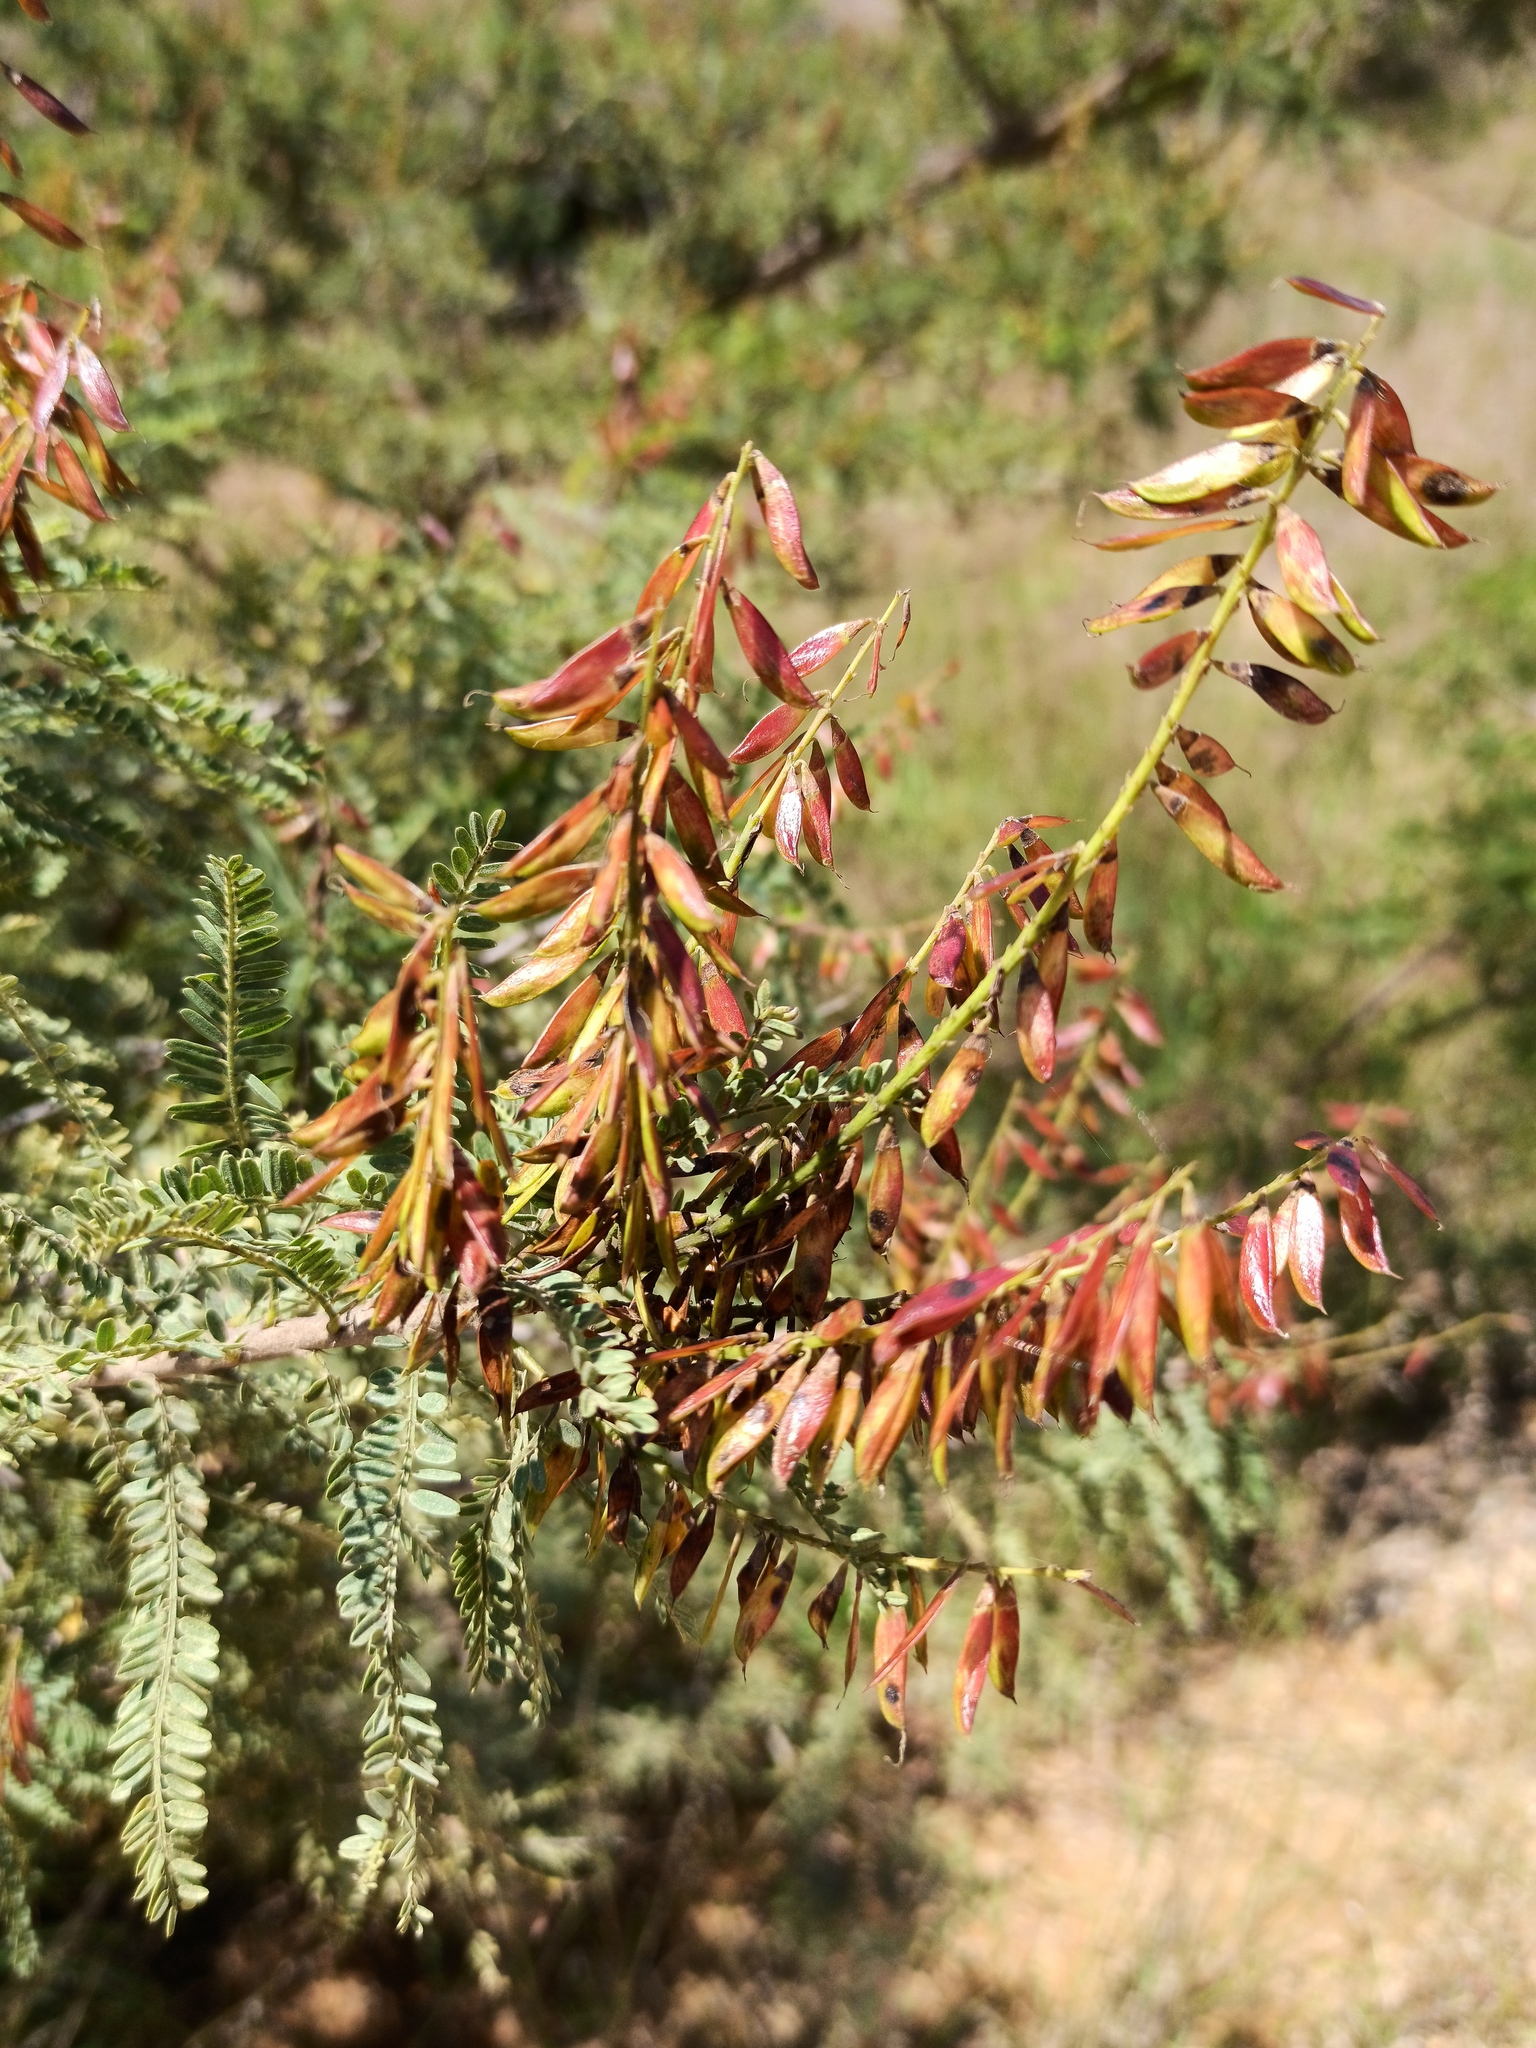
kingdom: Plantae
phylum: Tracheophyta
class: Magnoliopsida
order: Fabales
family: Fabaceae
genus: Eysenhardtia
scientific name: Eysenhardtia polystachya
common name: Kidneywood
